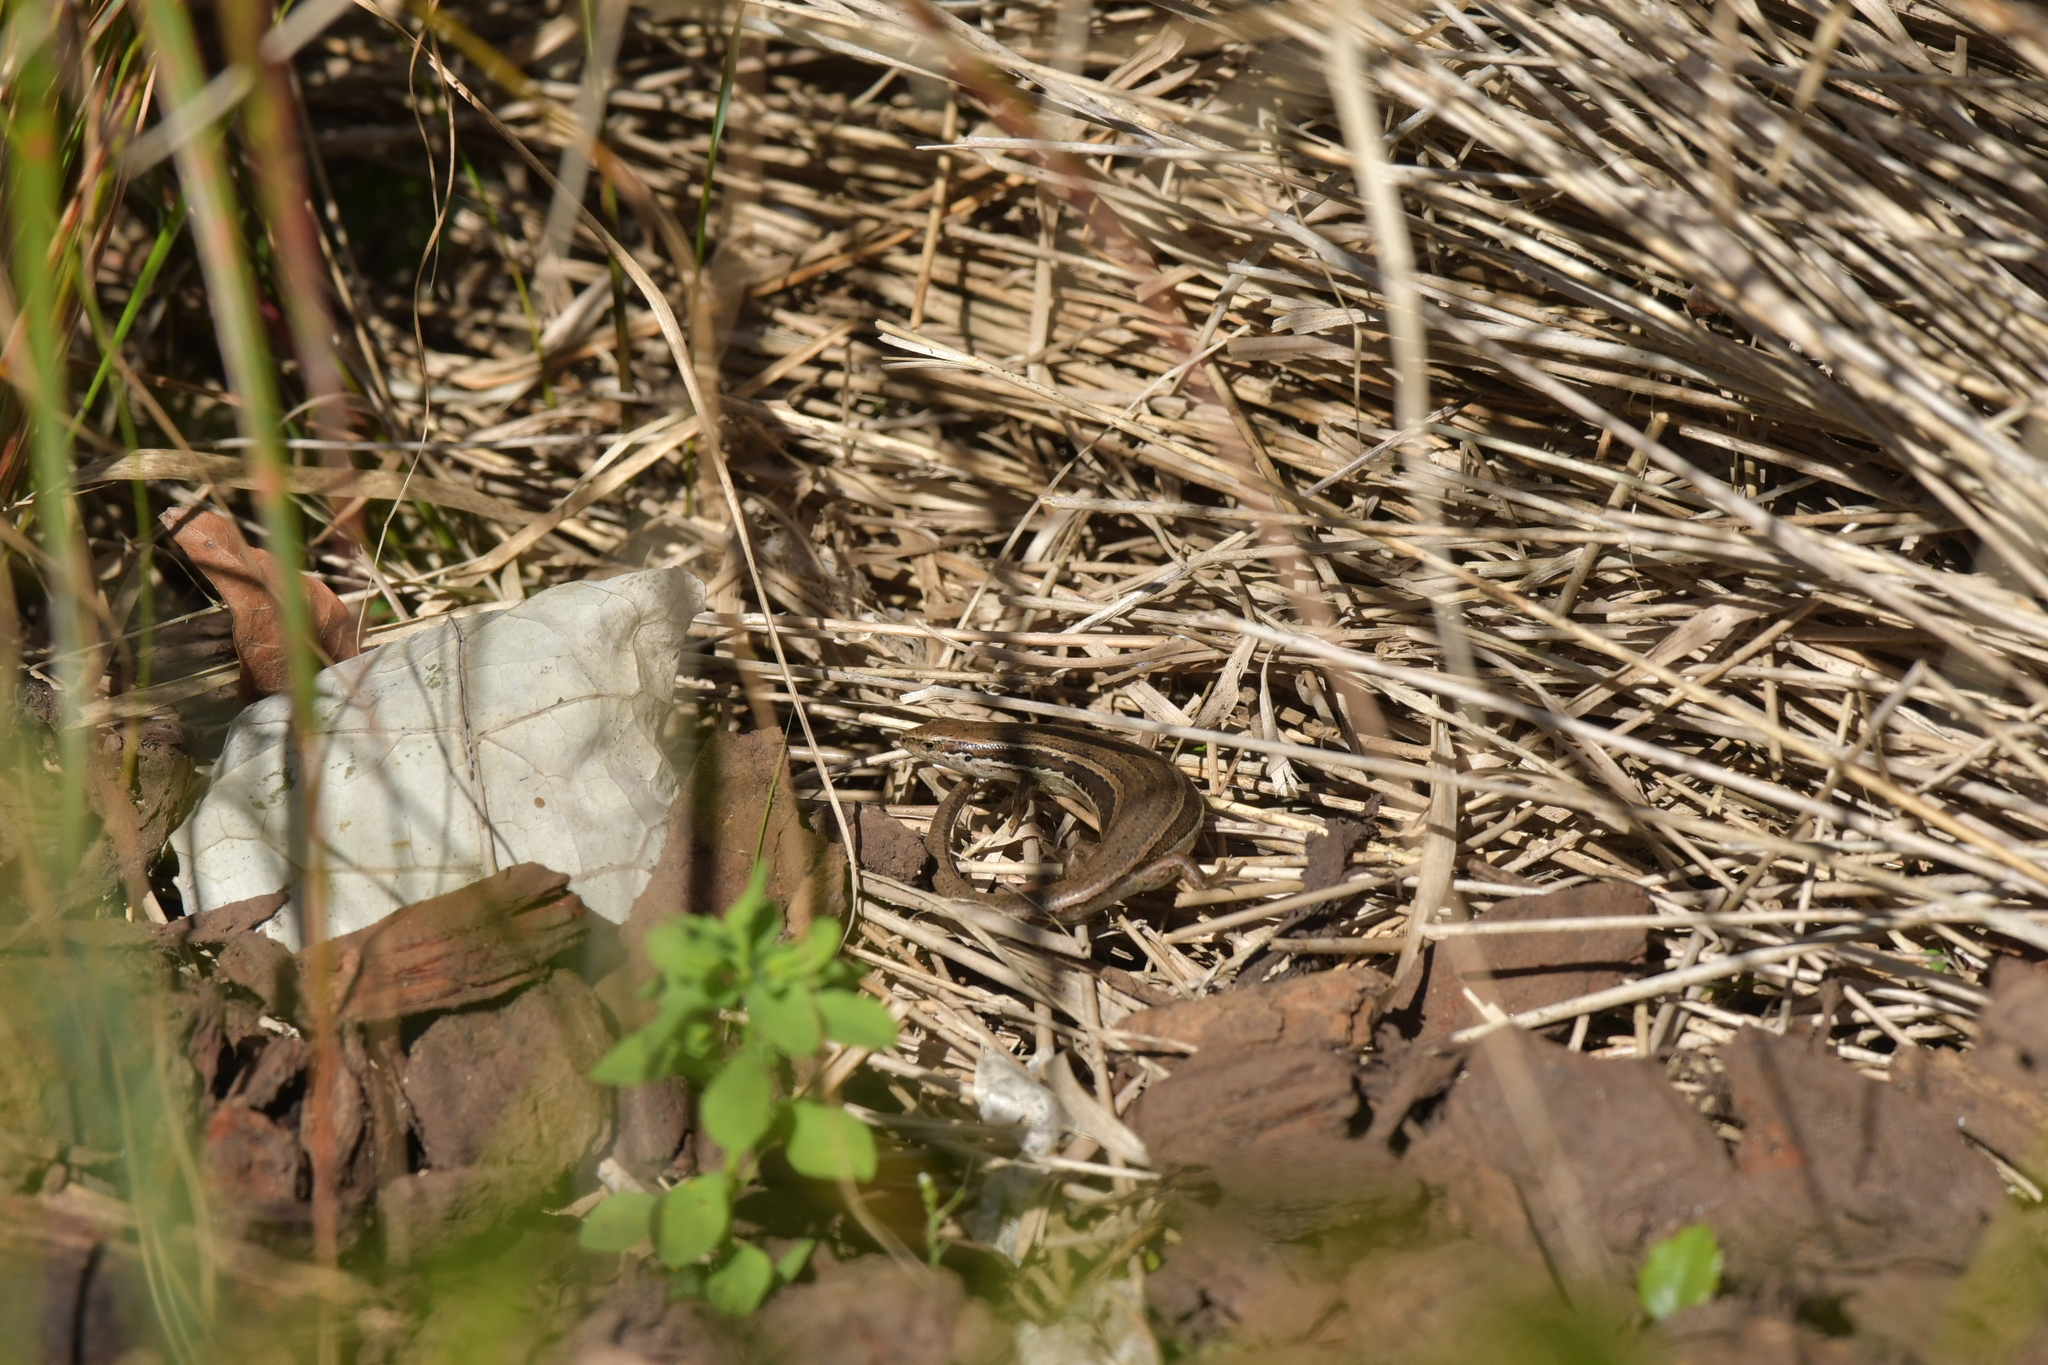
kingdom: Animalia
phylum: Chordata
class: Squamata
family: Scincidae
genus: Oligosoma
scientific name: Oligosoma polychroma
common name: Common new zealand skink
